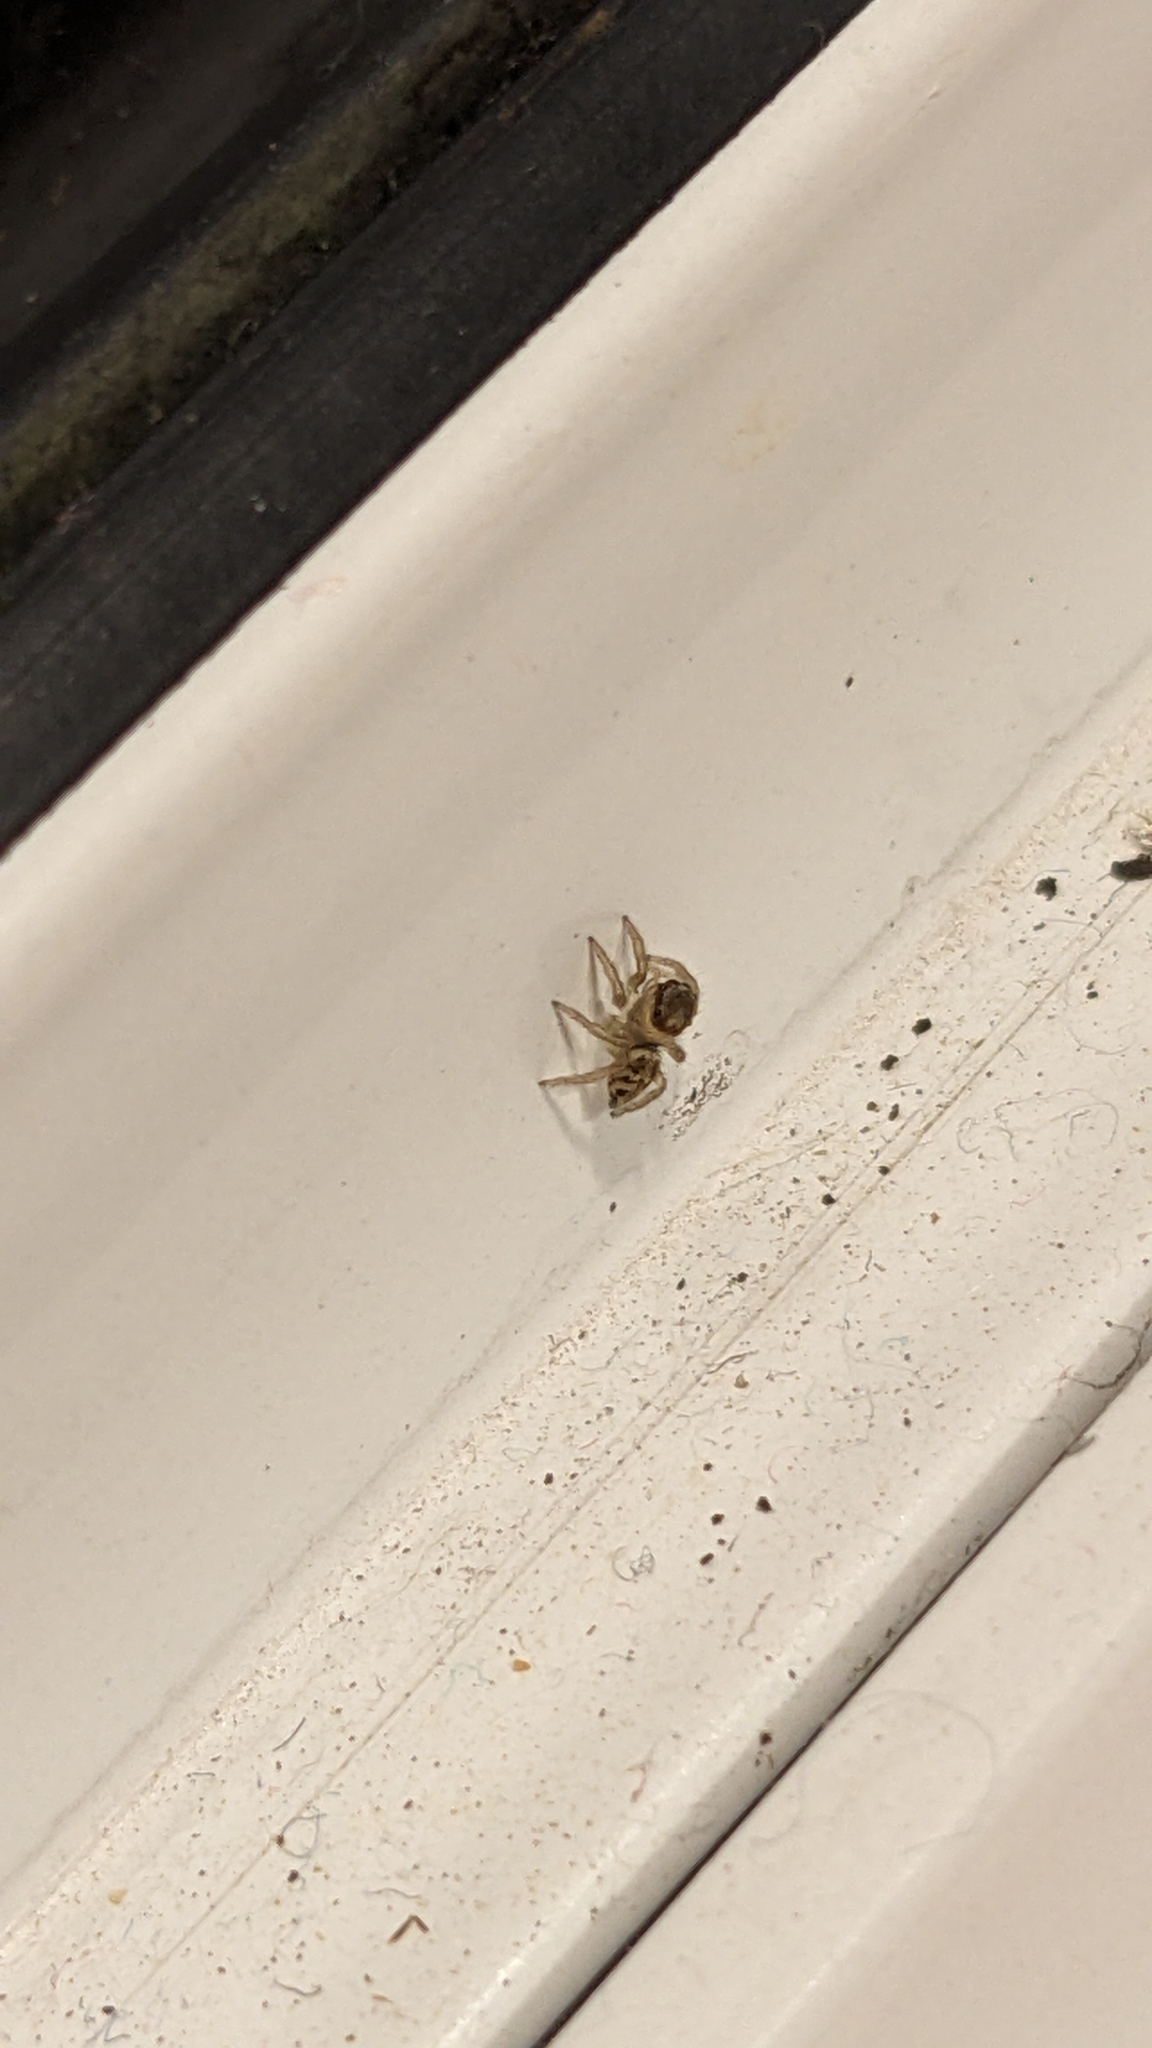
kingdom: Animalia
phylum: Arthropoda
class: Arachnida
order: Araneae
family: Salticidae
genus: Maratus
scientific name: Maratus griseus
